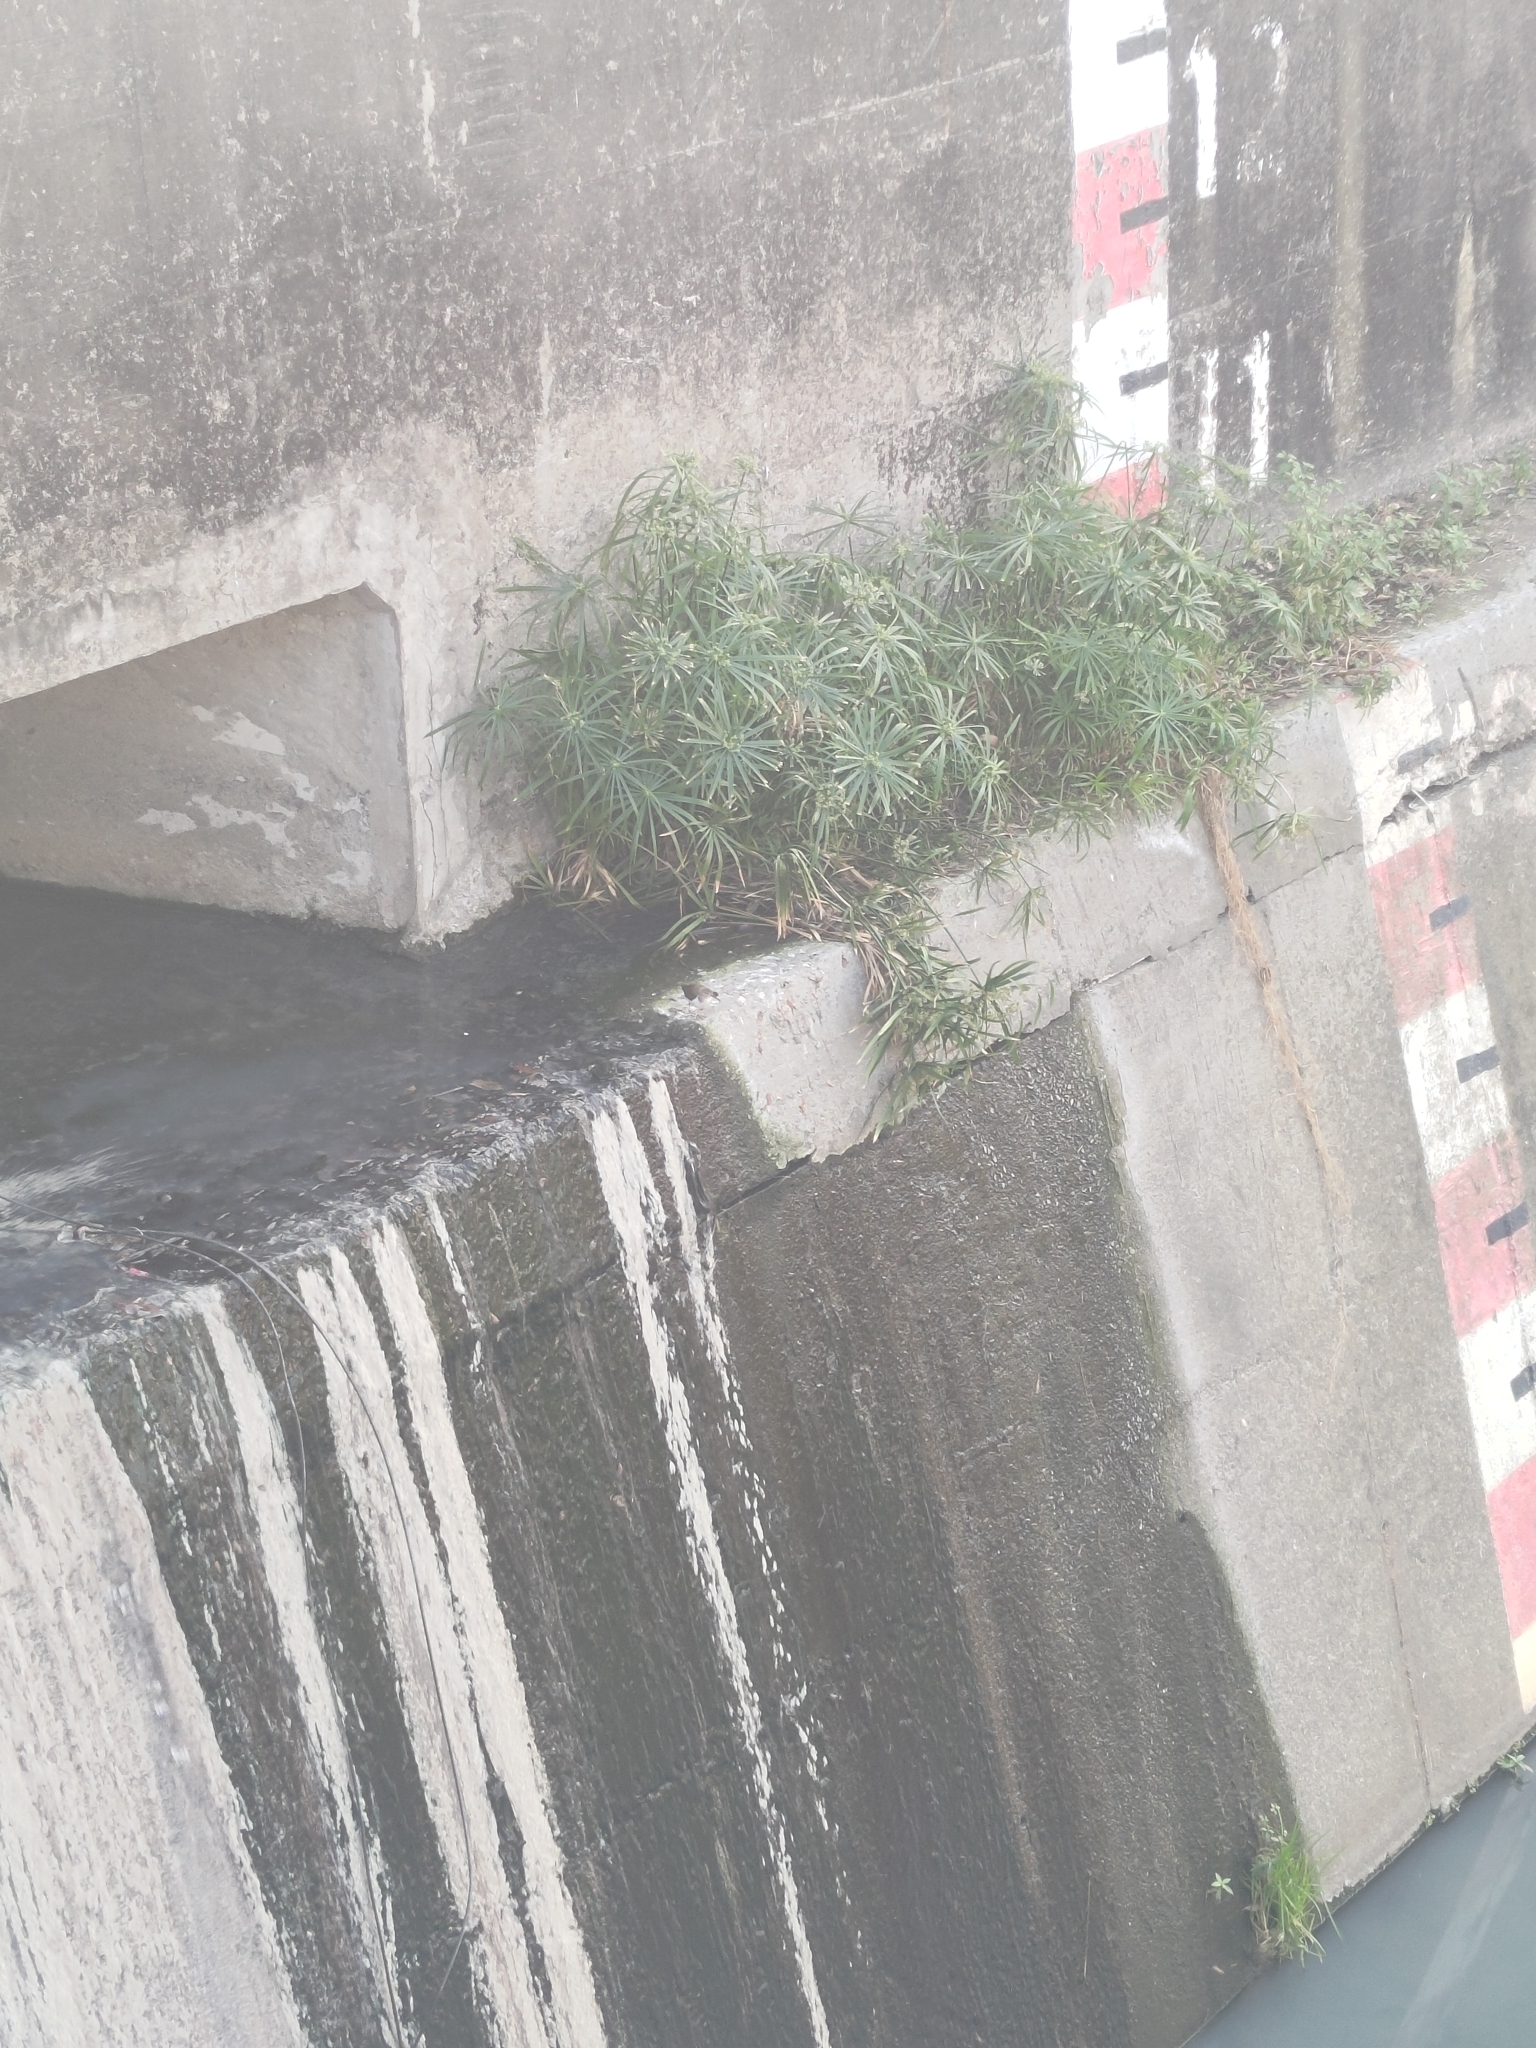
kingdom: Animalia
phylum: Chordata
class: Aves
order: Charadriiformes
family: Scolopacidae
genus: Actitis
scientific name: Actitis hypoleucos
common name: Common sandpiper
